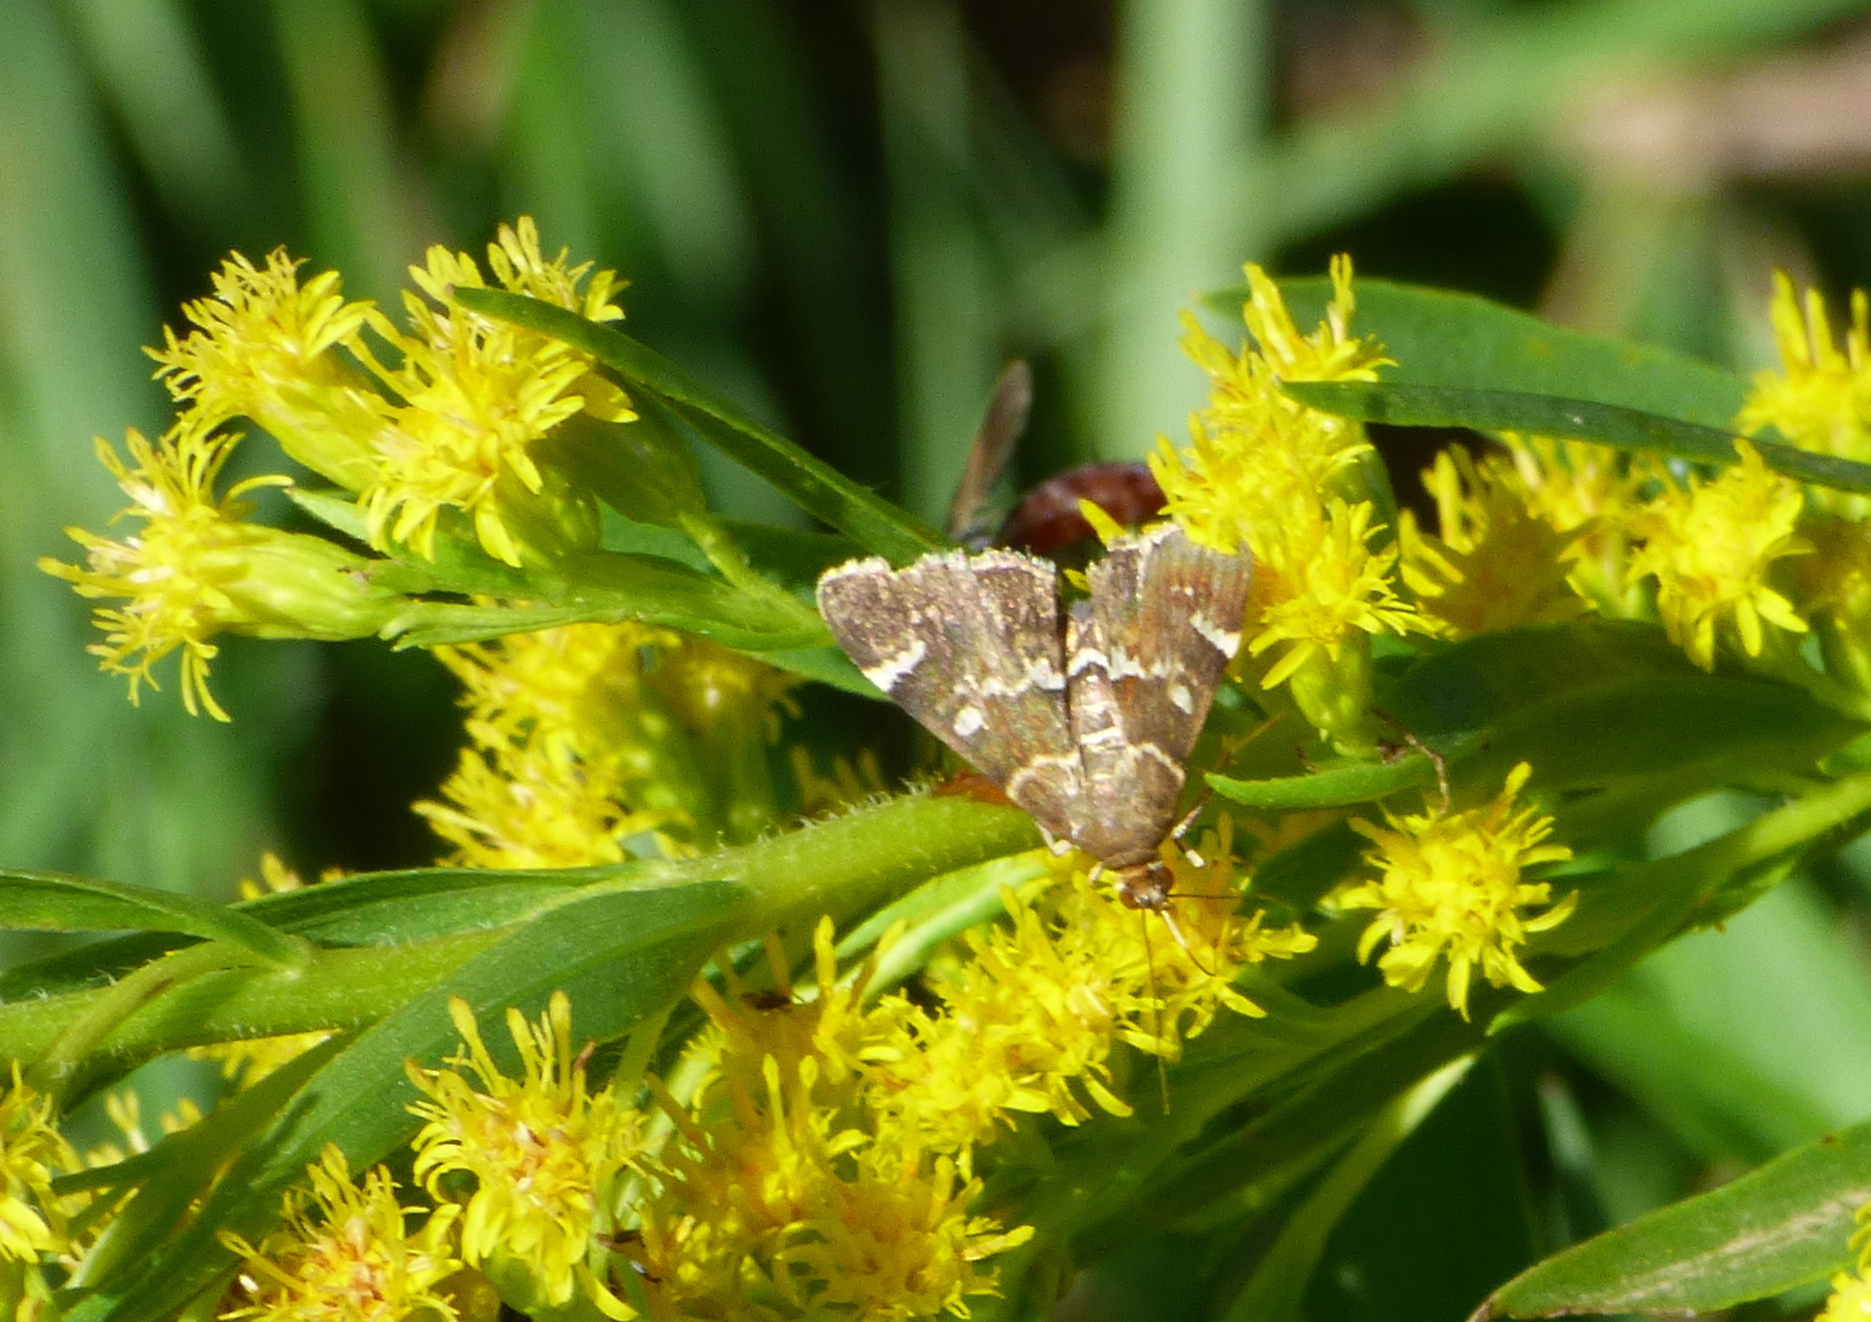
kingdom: Animalia
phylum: Arthropoda
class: Insecta
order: Lepidoptera
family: Crambidae
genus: Hymenia
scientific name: Hymenia perspectalis
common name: Spotted beet webworm
